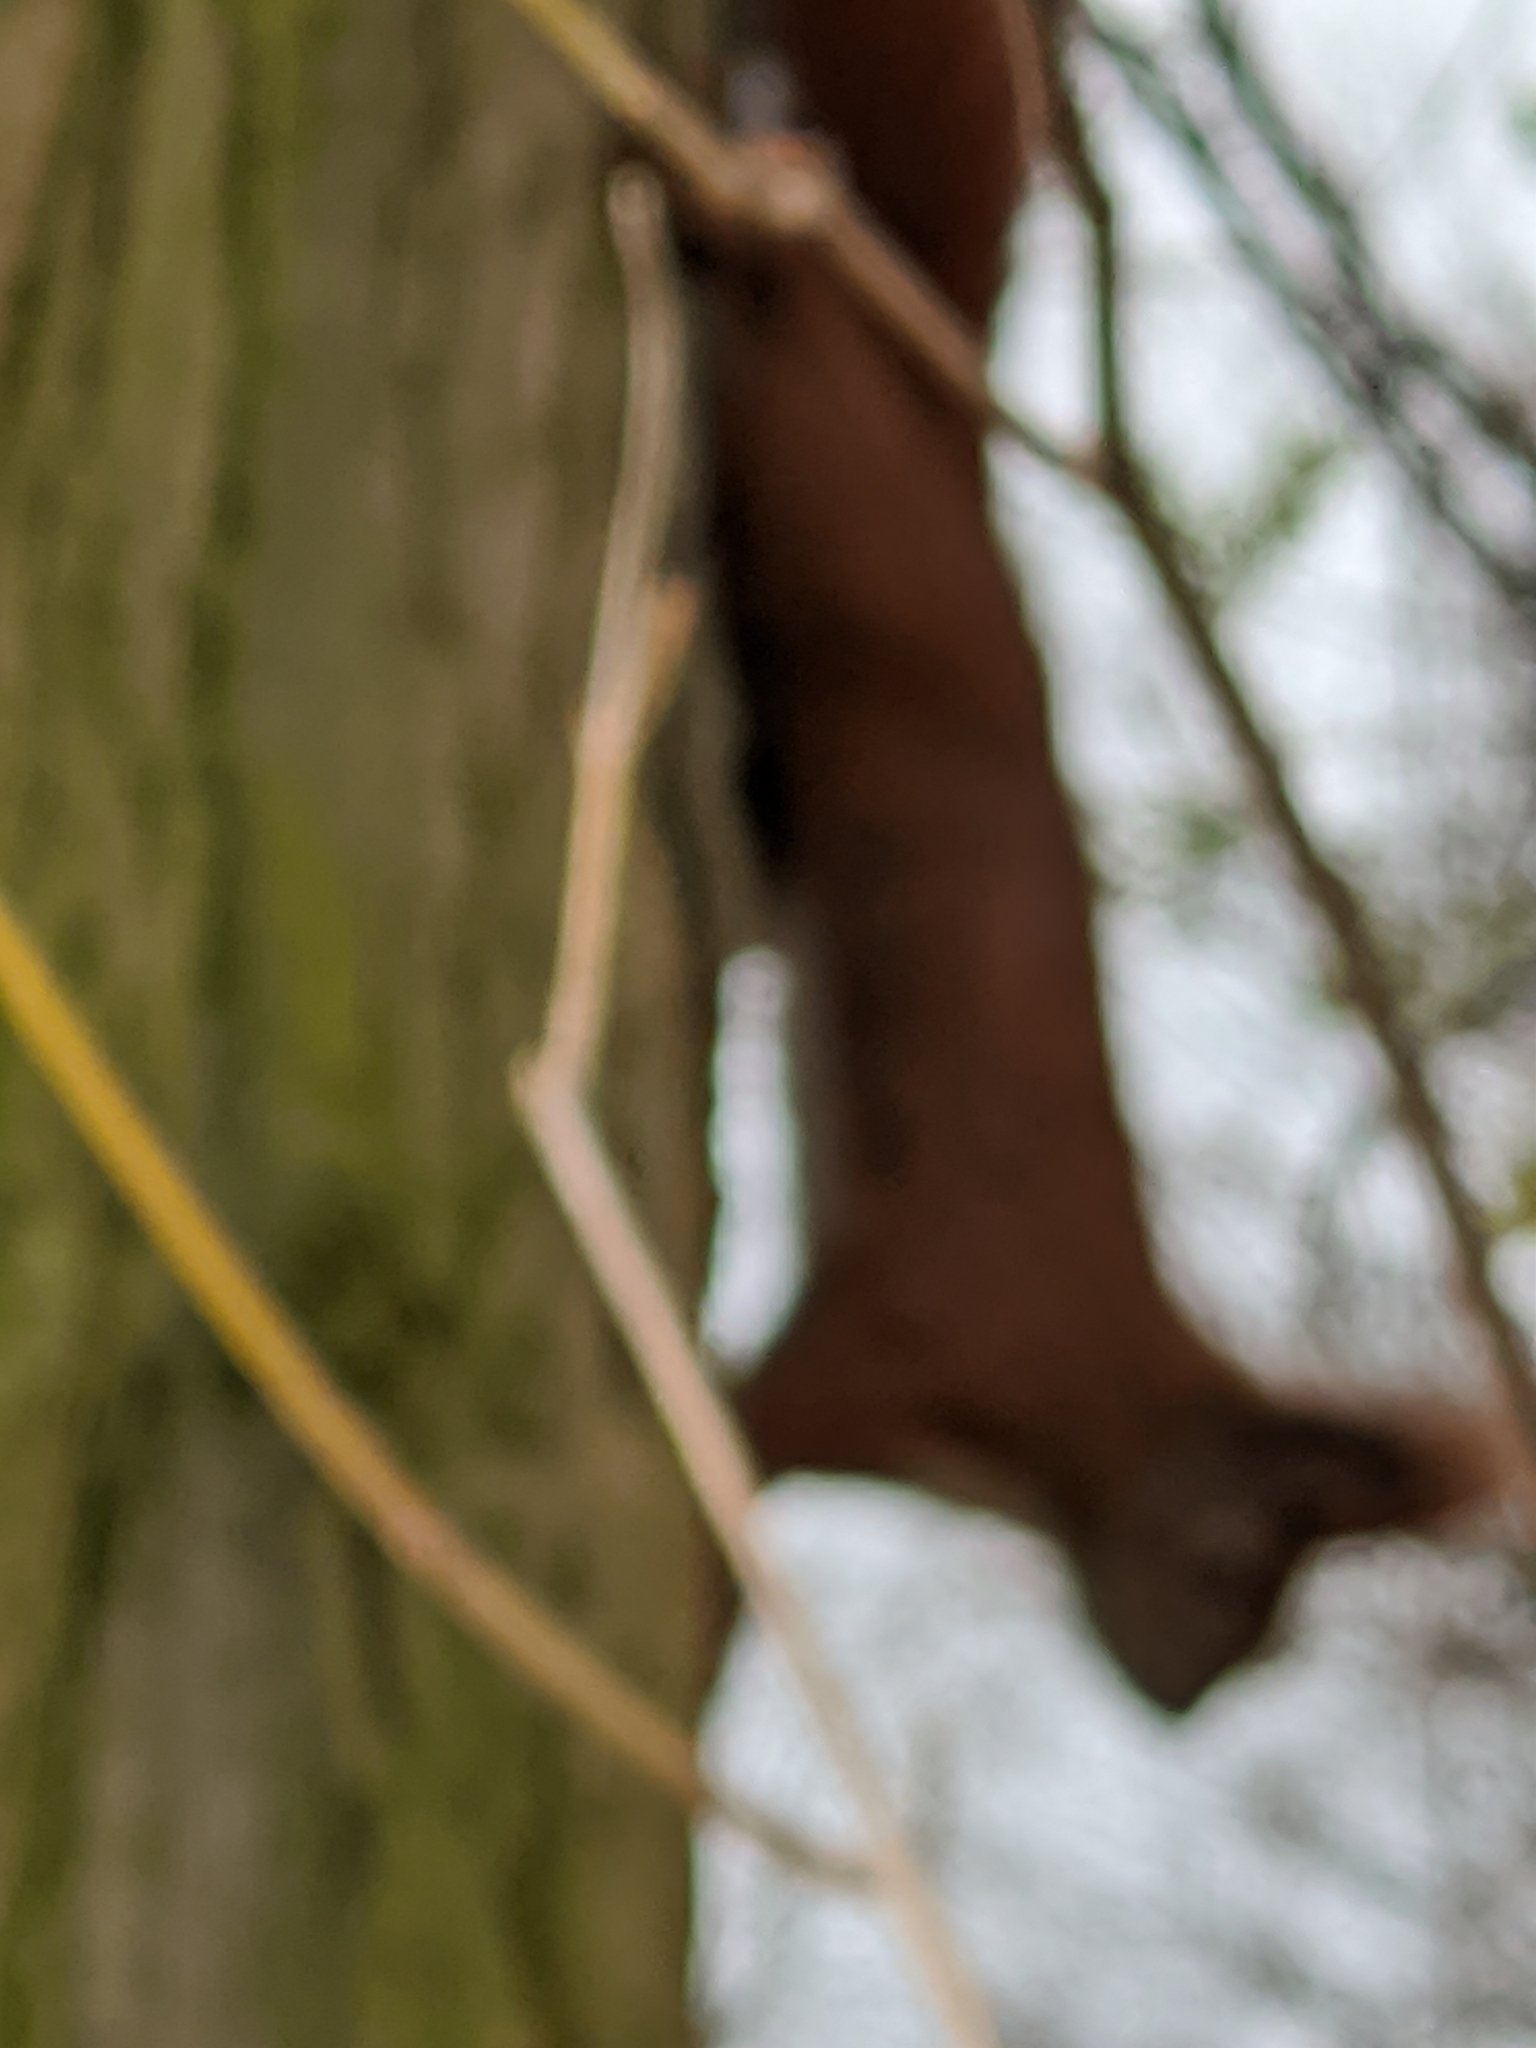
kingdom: Animalia
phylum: Chordata
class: Mammalia
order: Rodentia
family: Sciuridae
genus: Sciurus
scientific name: Sciurus vulgaris
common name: Eurasian red squirrel
